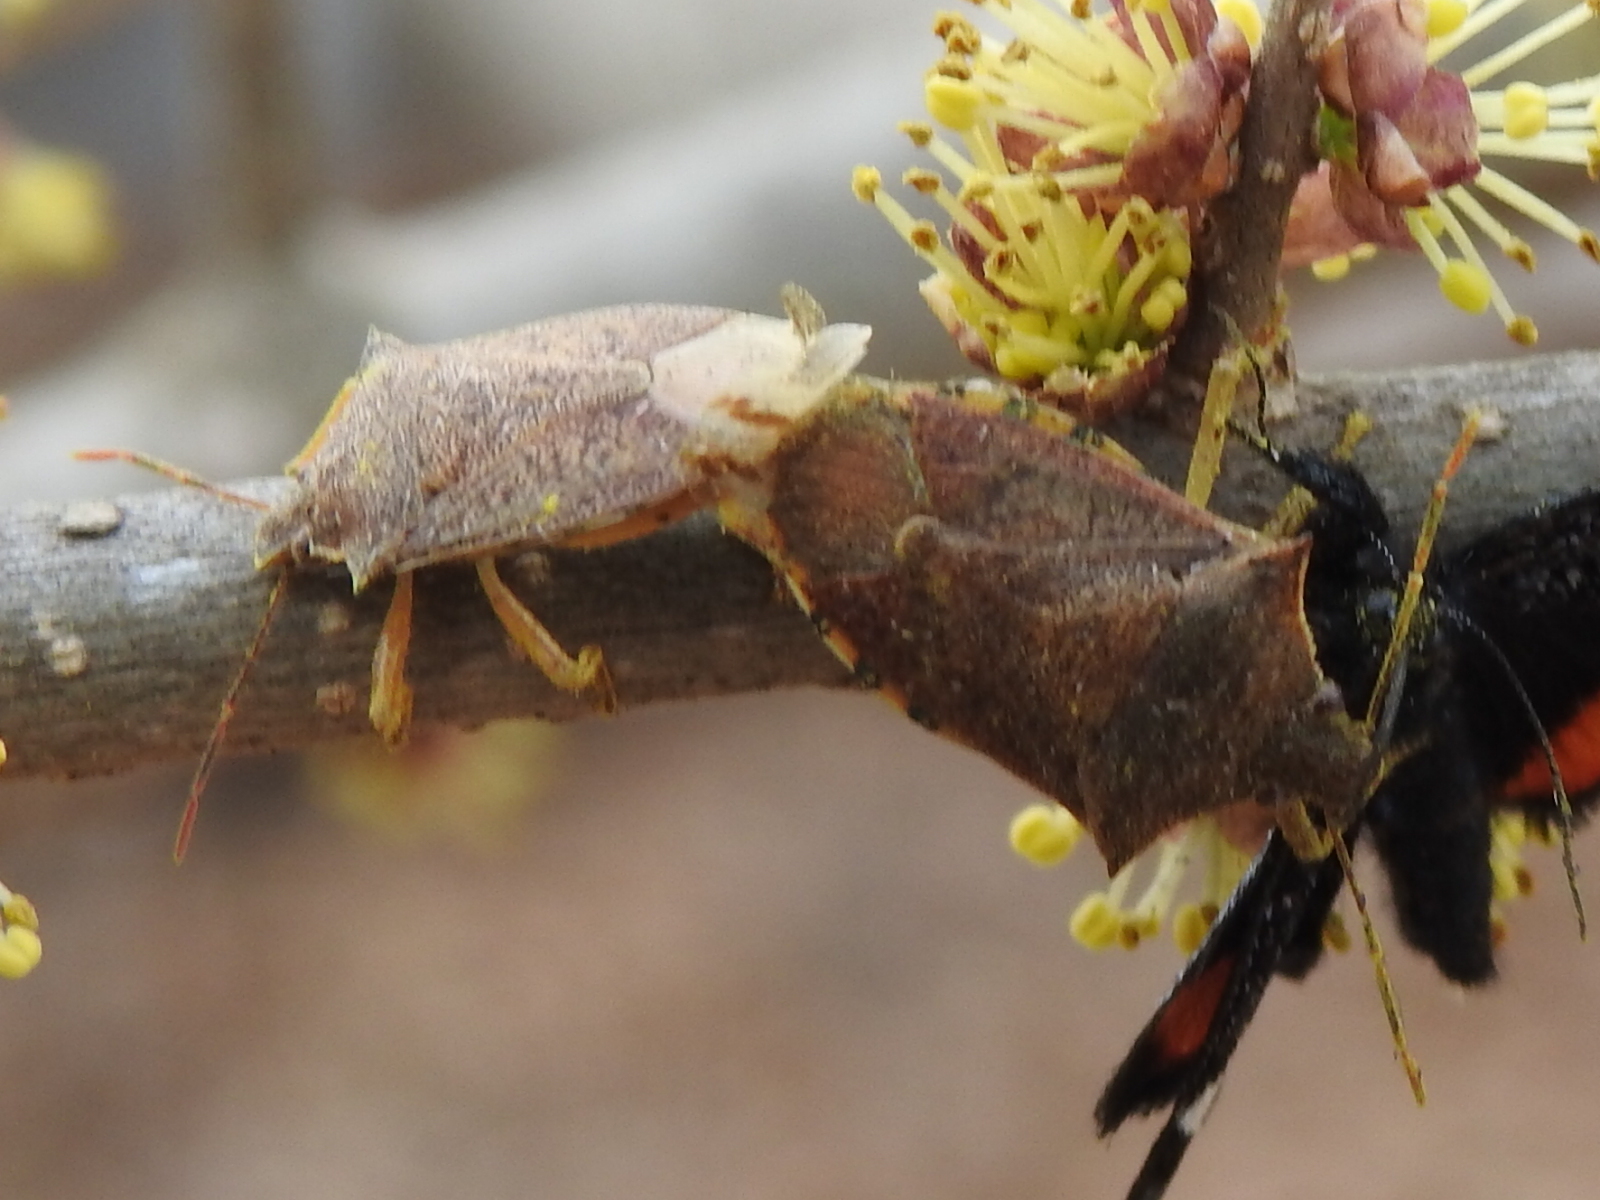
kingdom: Animalia
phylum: Arthropoda
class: Insecta
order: Hemiptera
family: Pentatomidae
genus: Podisus
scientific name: Podisus maculiventris
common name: Spined soldier bug
